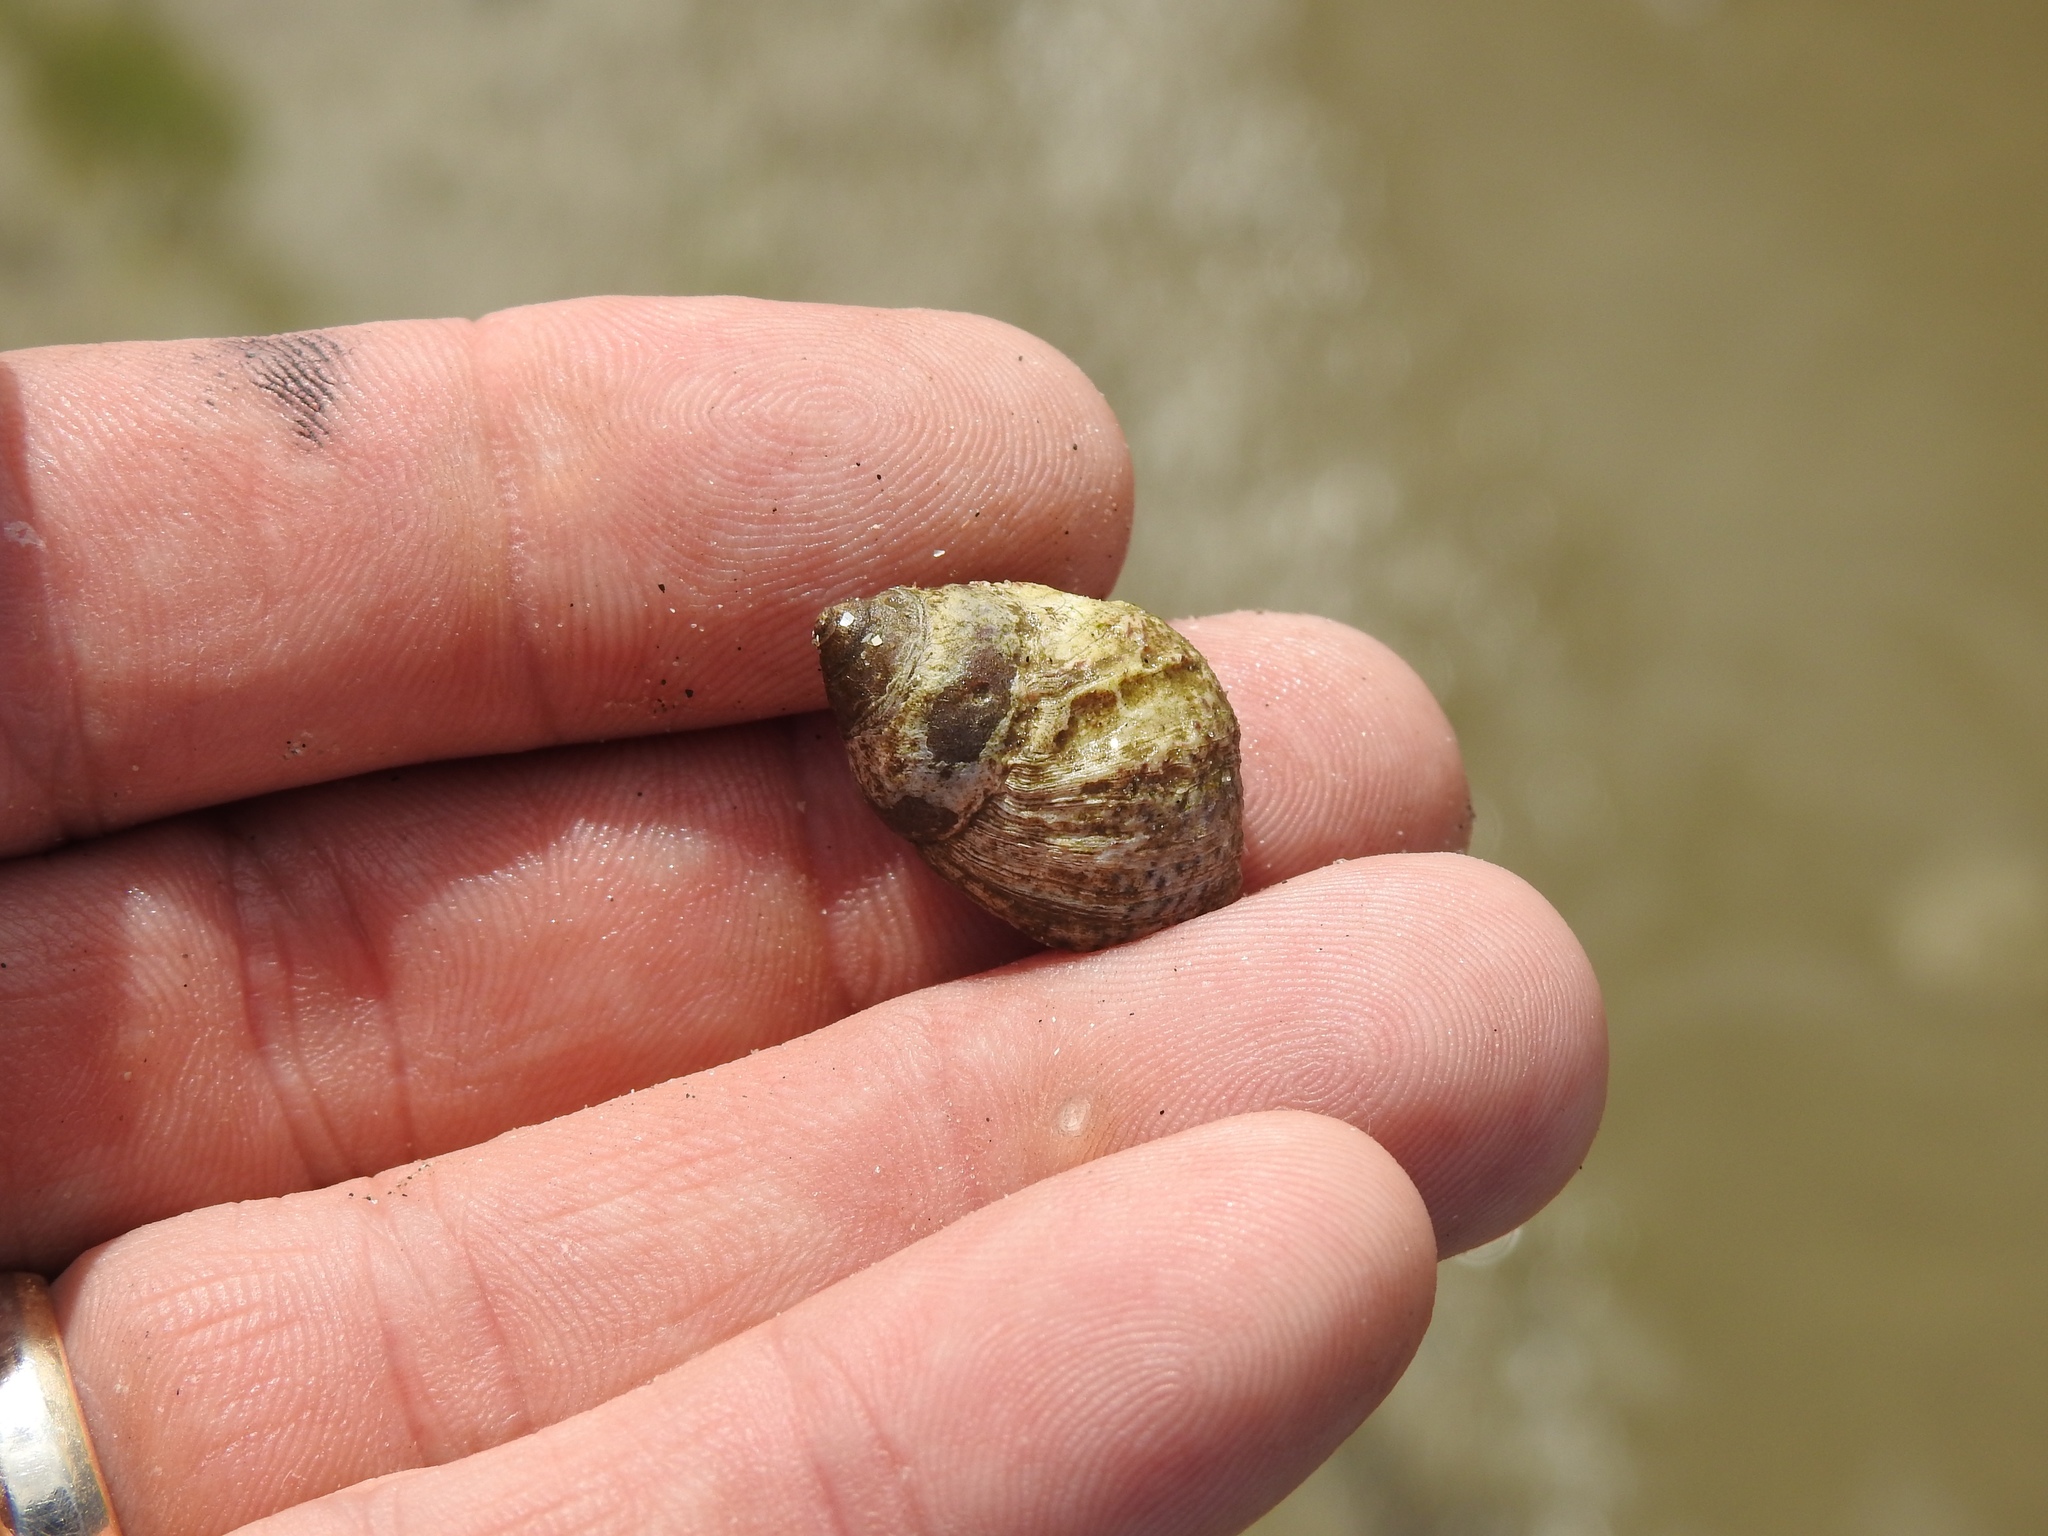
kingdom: Animalia
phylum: Arthropoda
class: Malacostraca
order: Decapoda
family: Diogenidae
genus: Clibanarius
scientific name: Clibanarius vittatus
